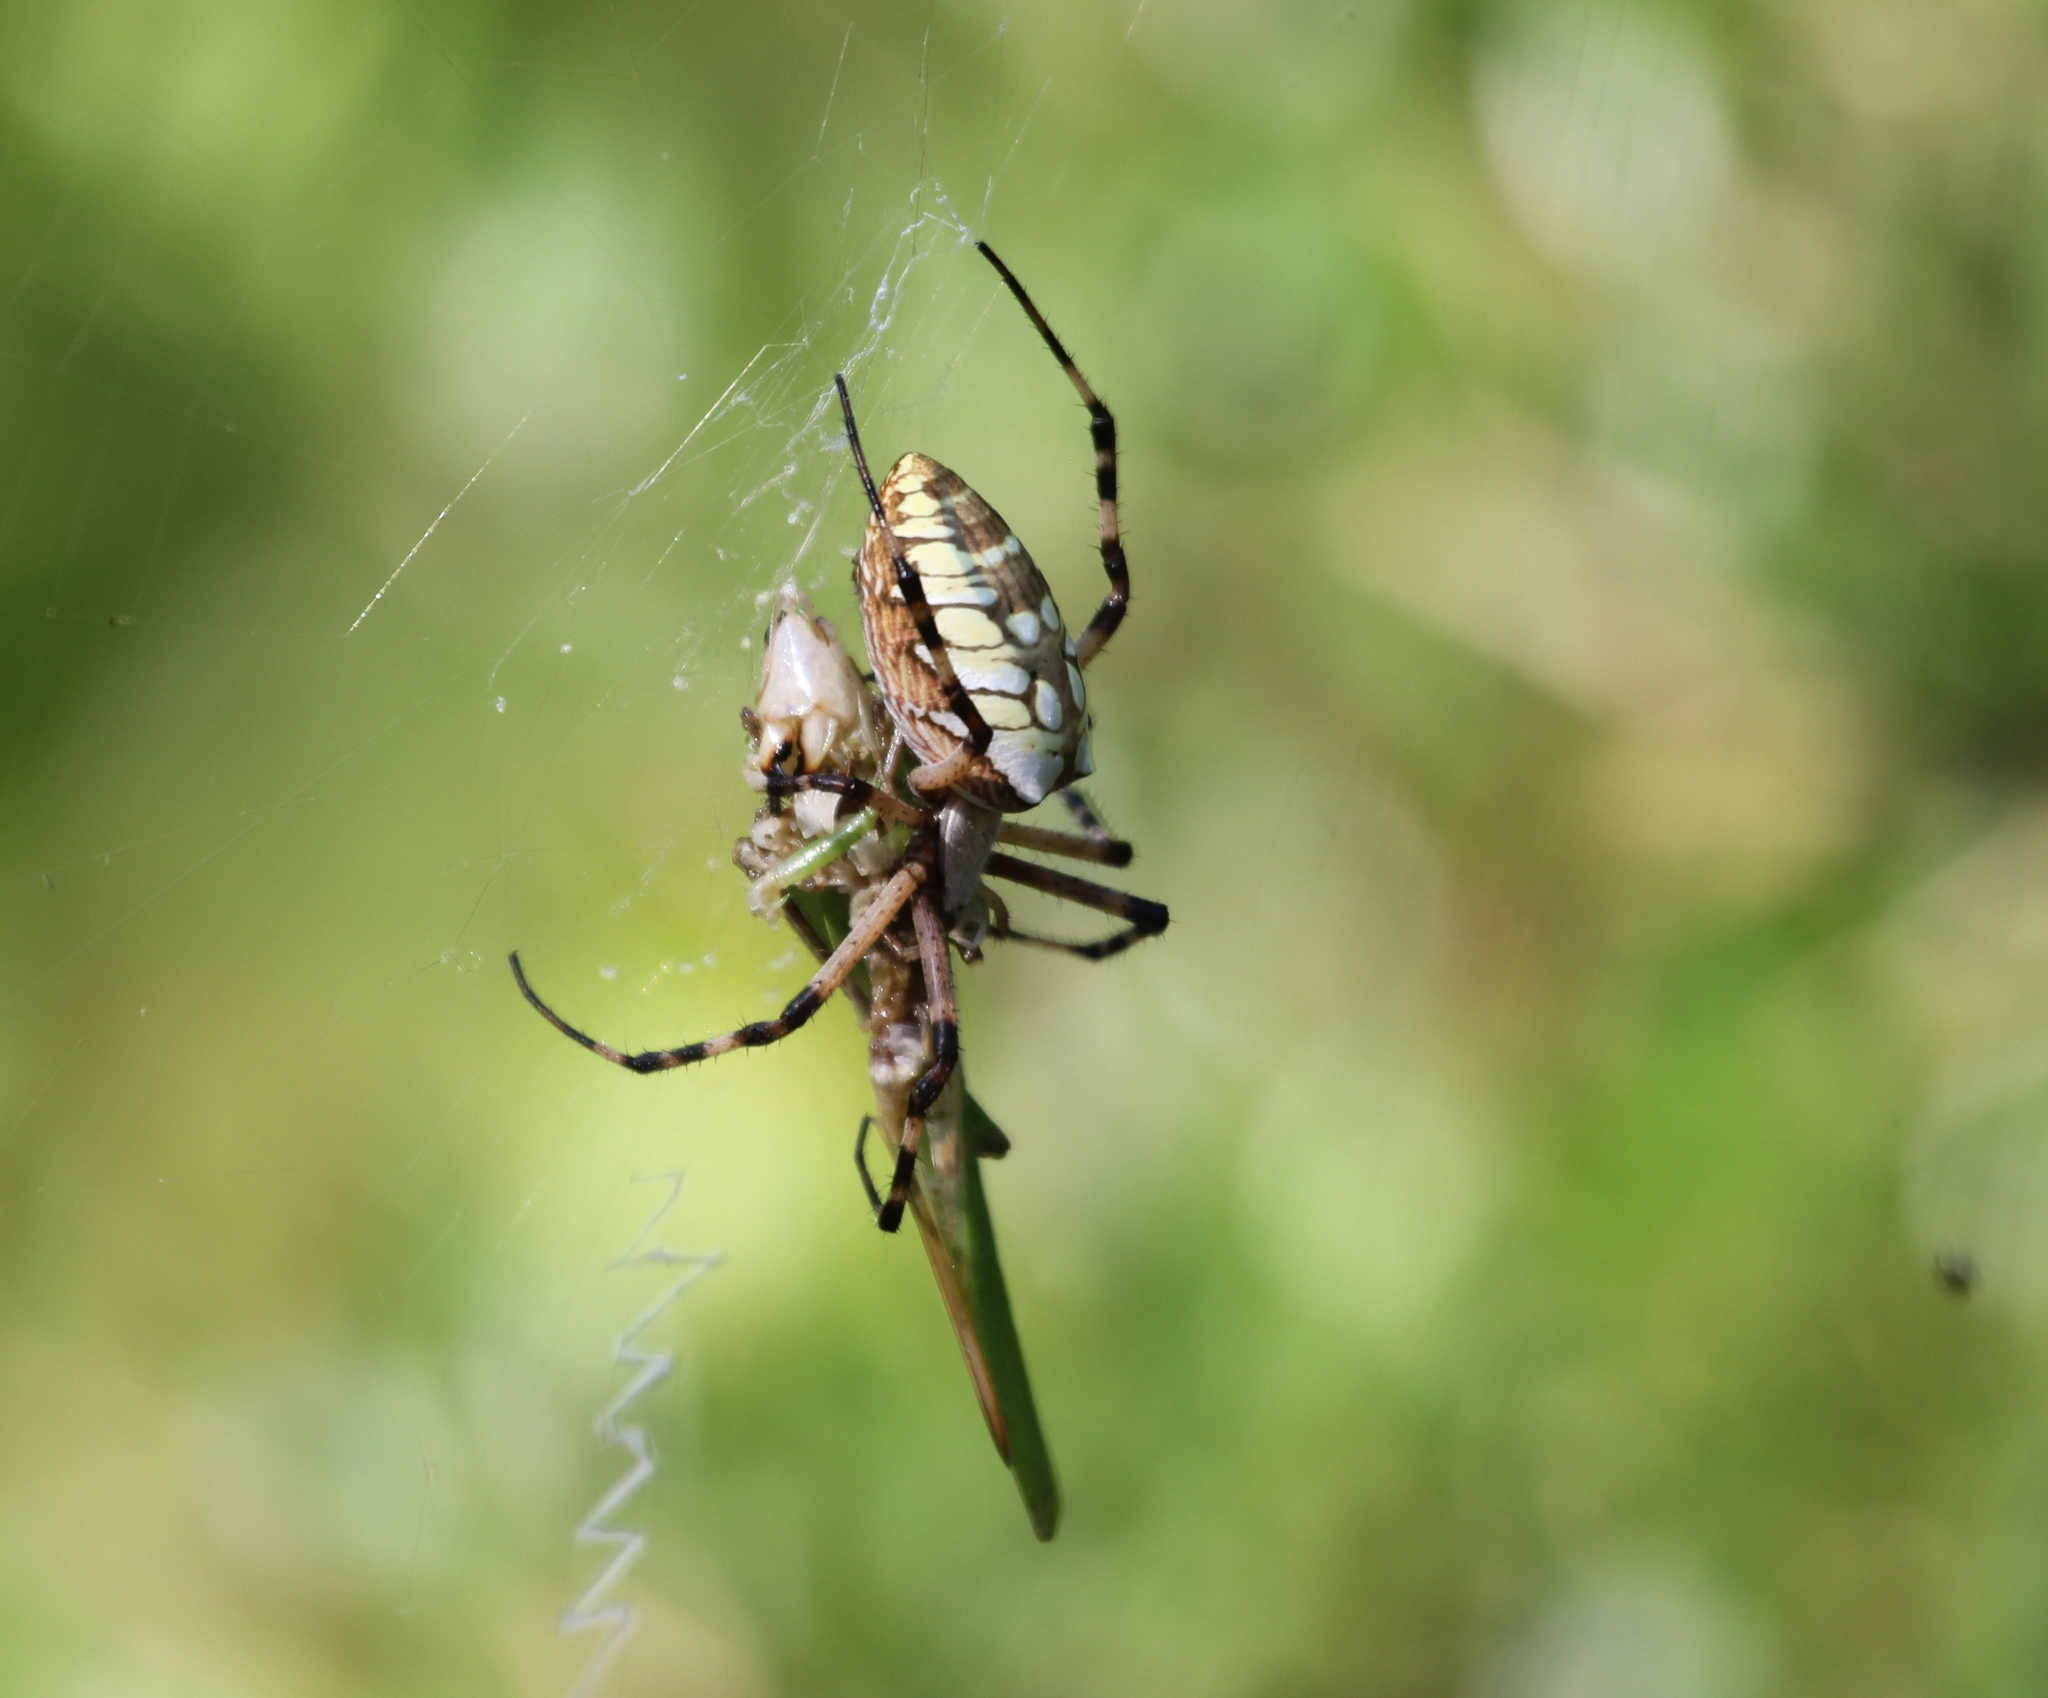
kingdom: Animalia
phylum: Arthropoda
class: Arachnida
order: Araneae
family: Araneidae
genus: Argiope
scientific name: Argiope aurantia
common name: Orb weavers
